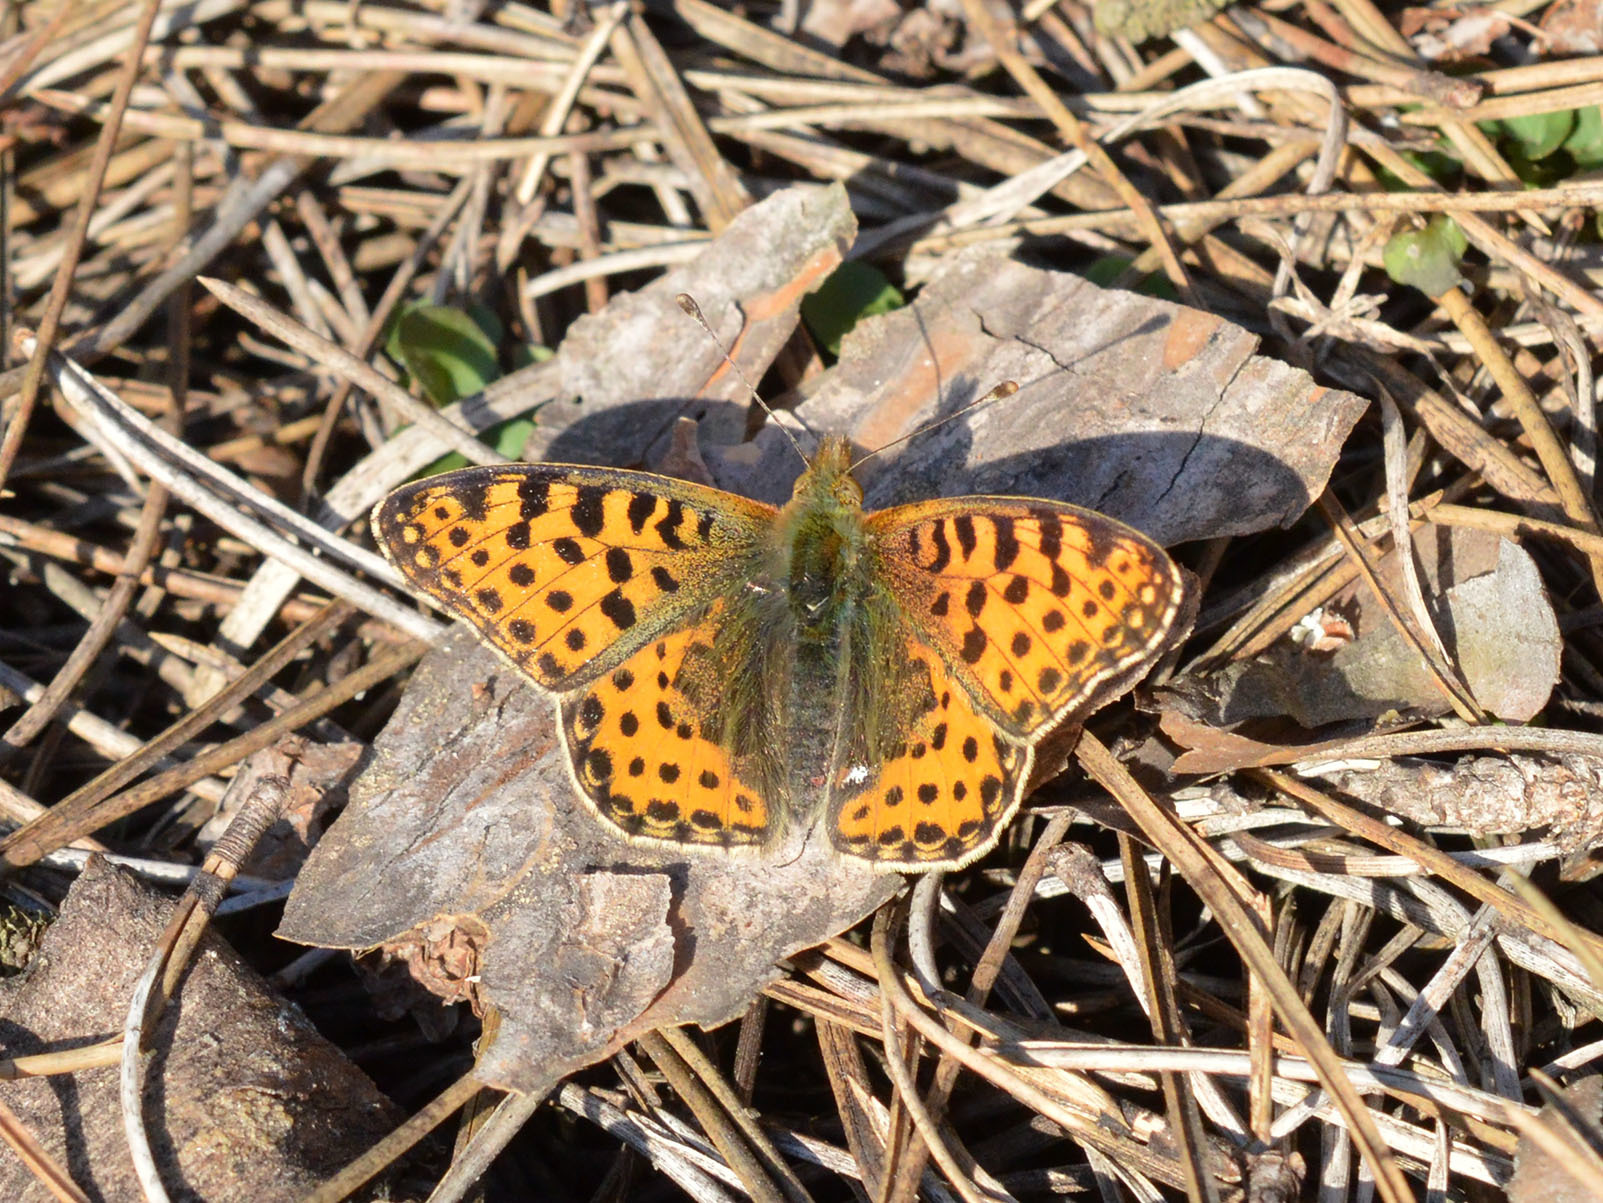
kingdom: Animalia
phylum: Arthropoda
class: Insecta
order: Lepidoptera
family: Nymphalidae
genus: Issoria
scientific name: Issoria lathonia
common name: Queen of spain fritillary
